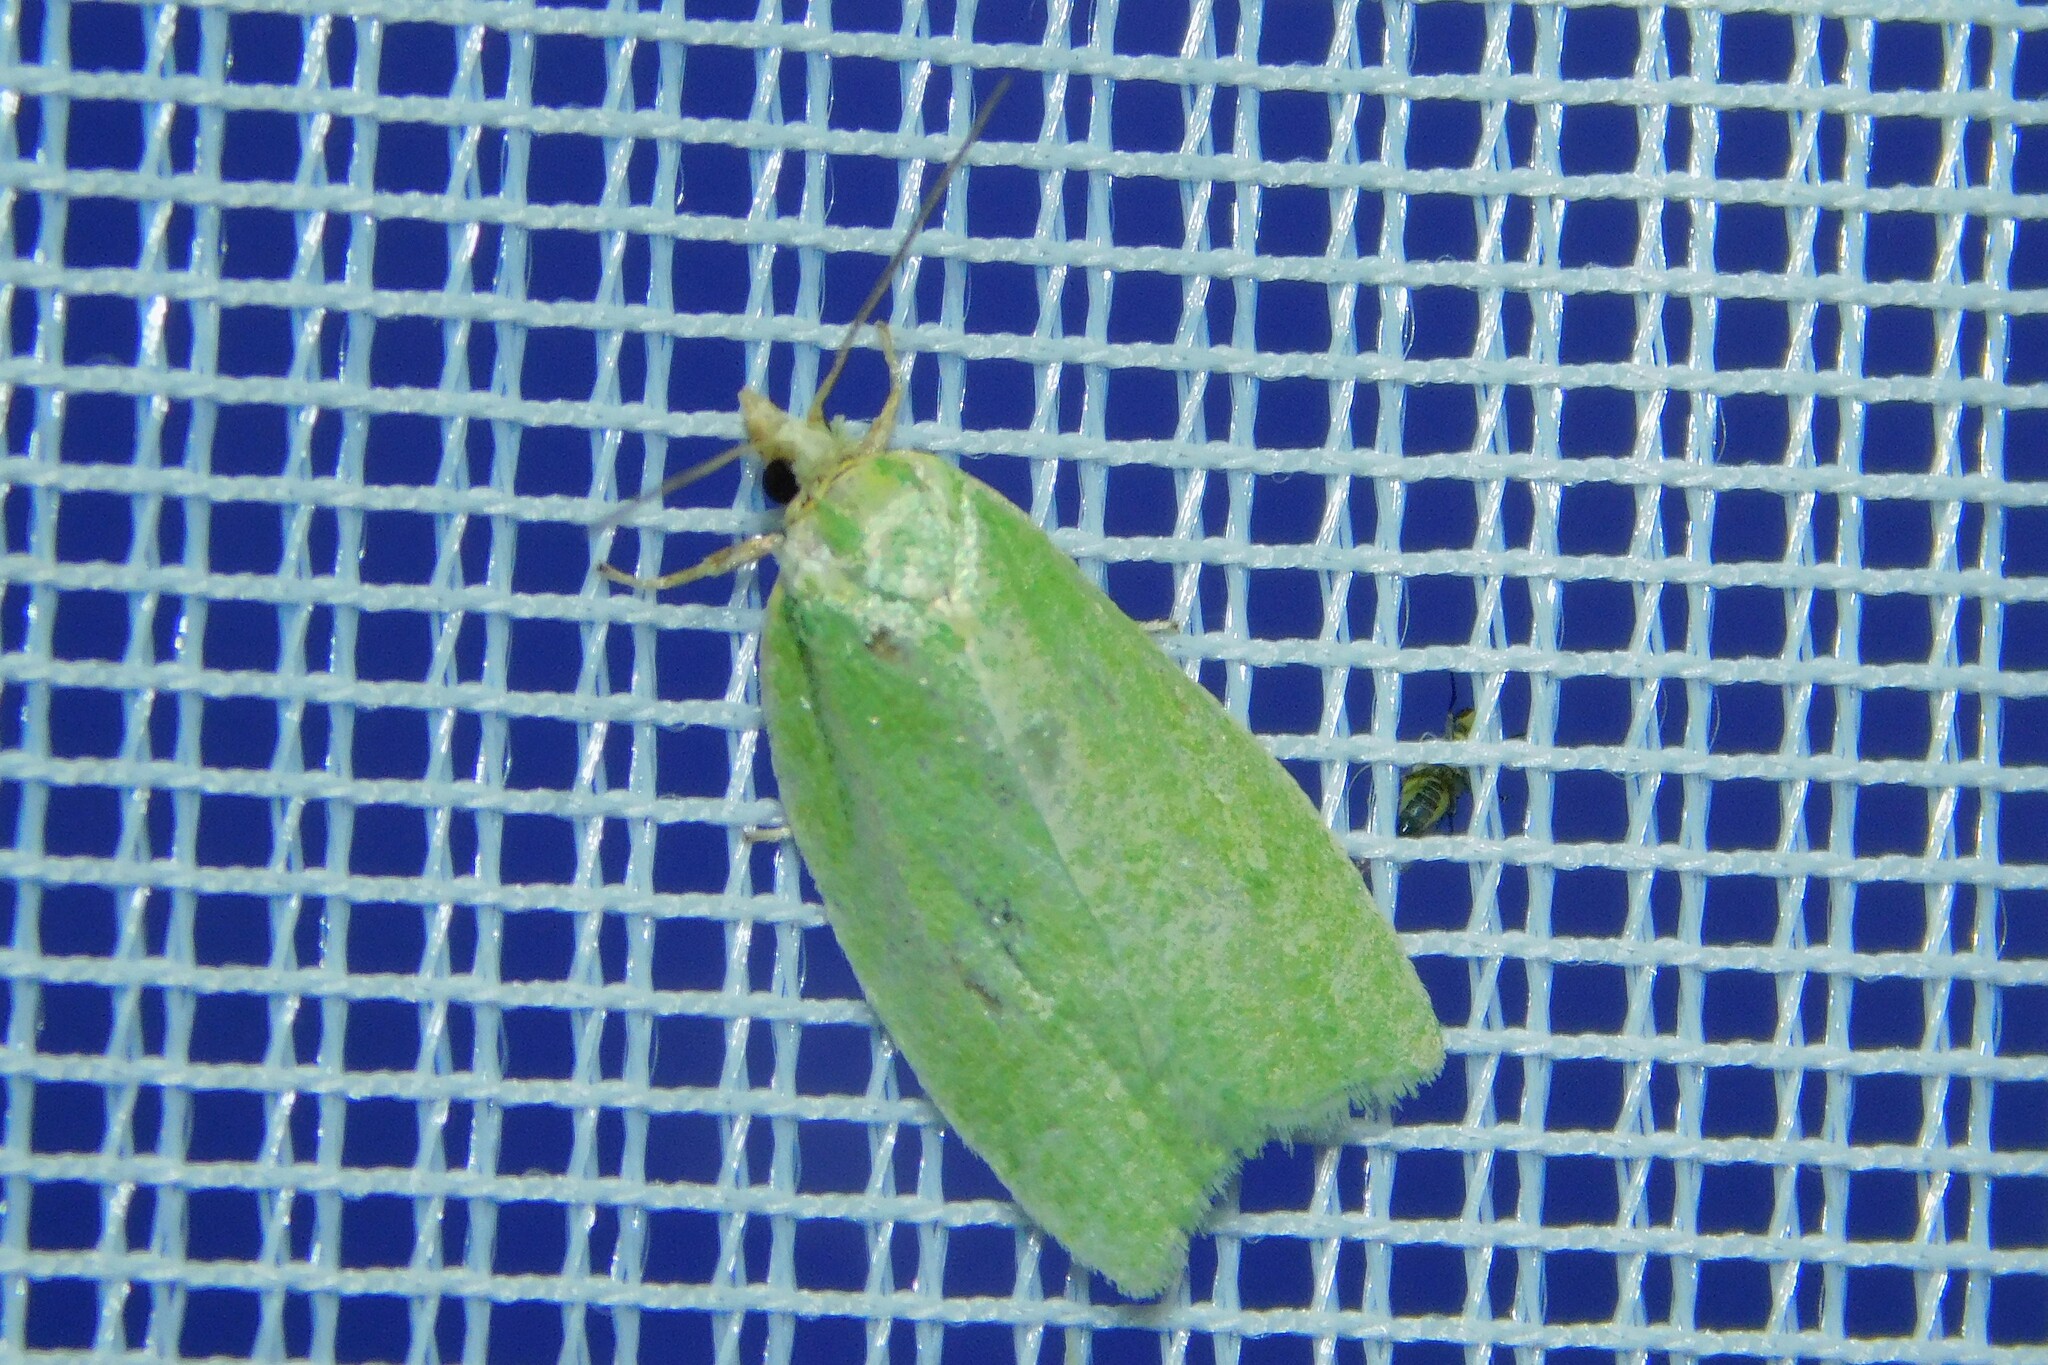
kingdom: Animalia
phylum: Arthropoda
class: Insecta
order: Lepidoptera
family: Tortricidae
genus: Tortrix
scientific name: Tortrix viridana
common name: Green oak tortrix
